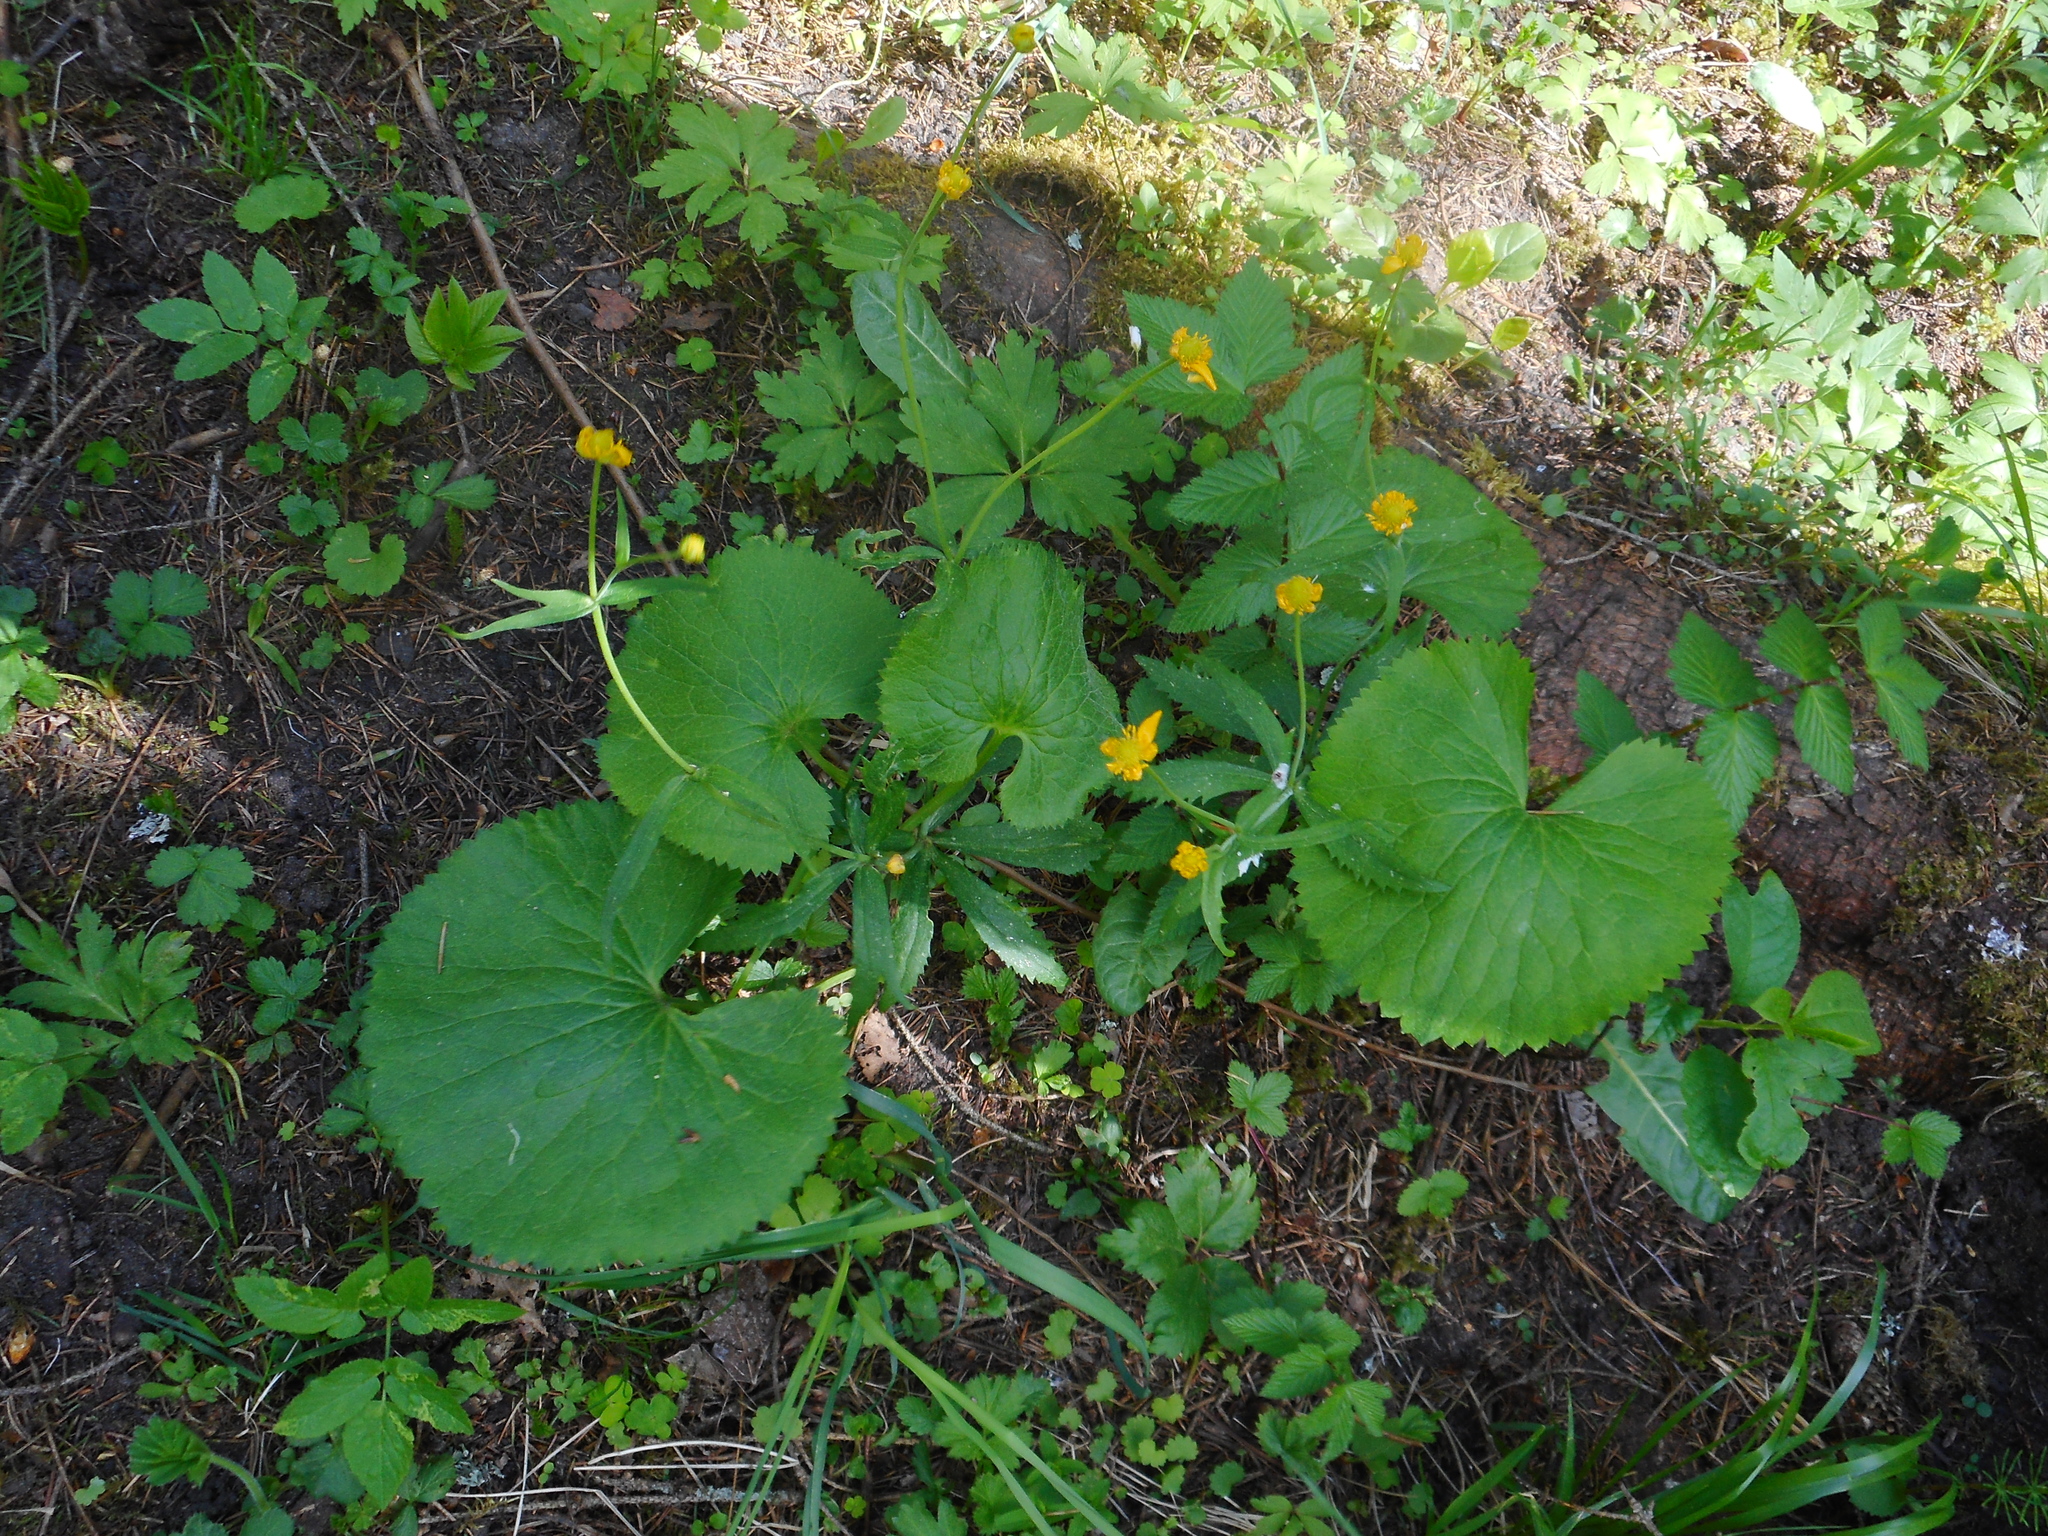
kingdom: Plantae
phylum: Tracheophyta
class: Magnoliopsida
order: Ranunculales
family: Ranunculaceae
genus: Ranunculus
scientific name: Ranunculus cassubicus
